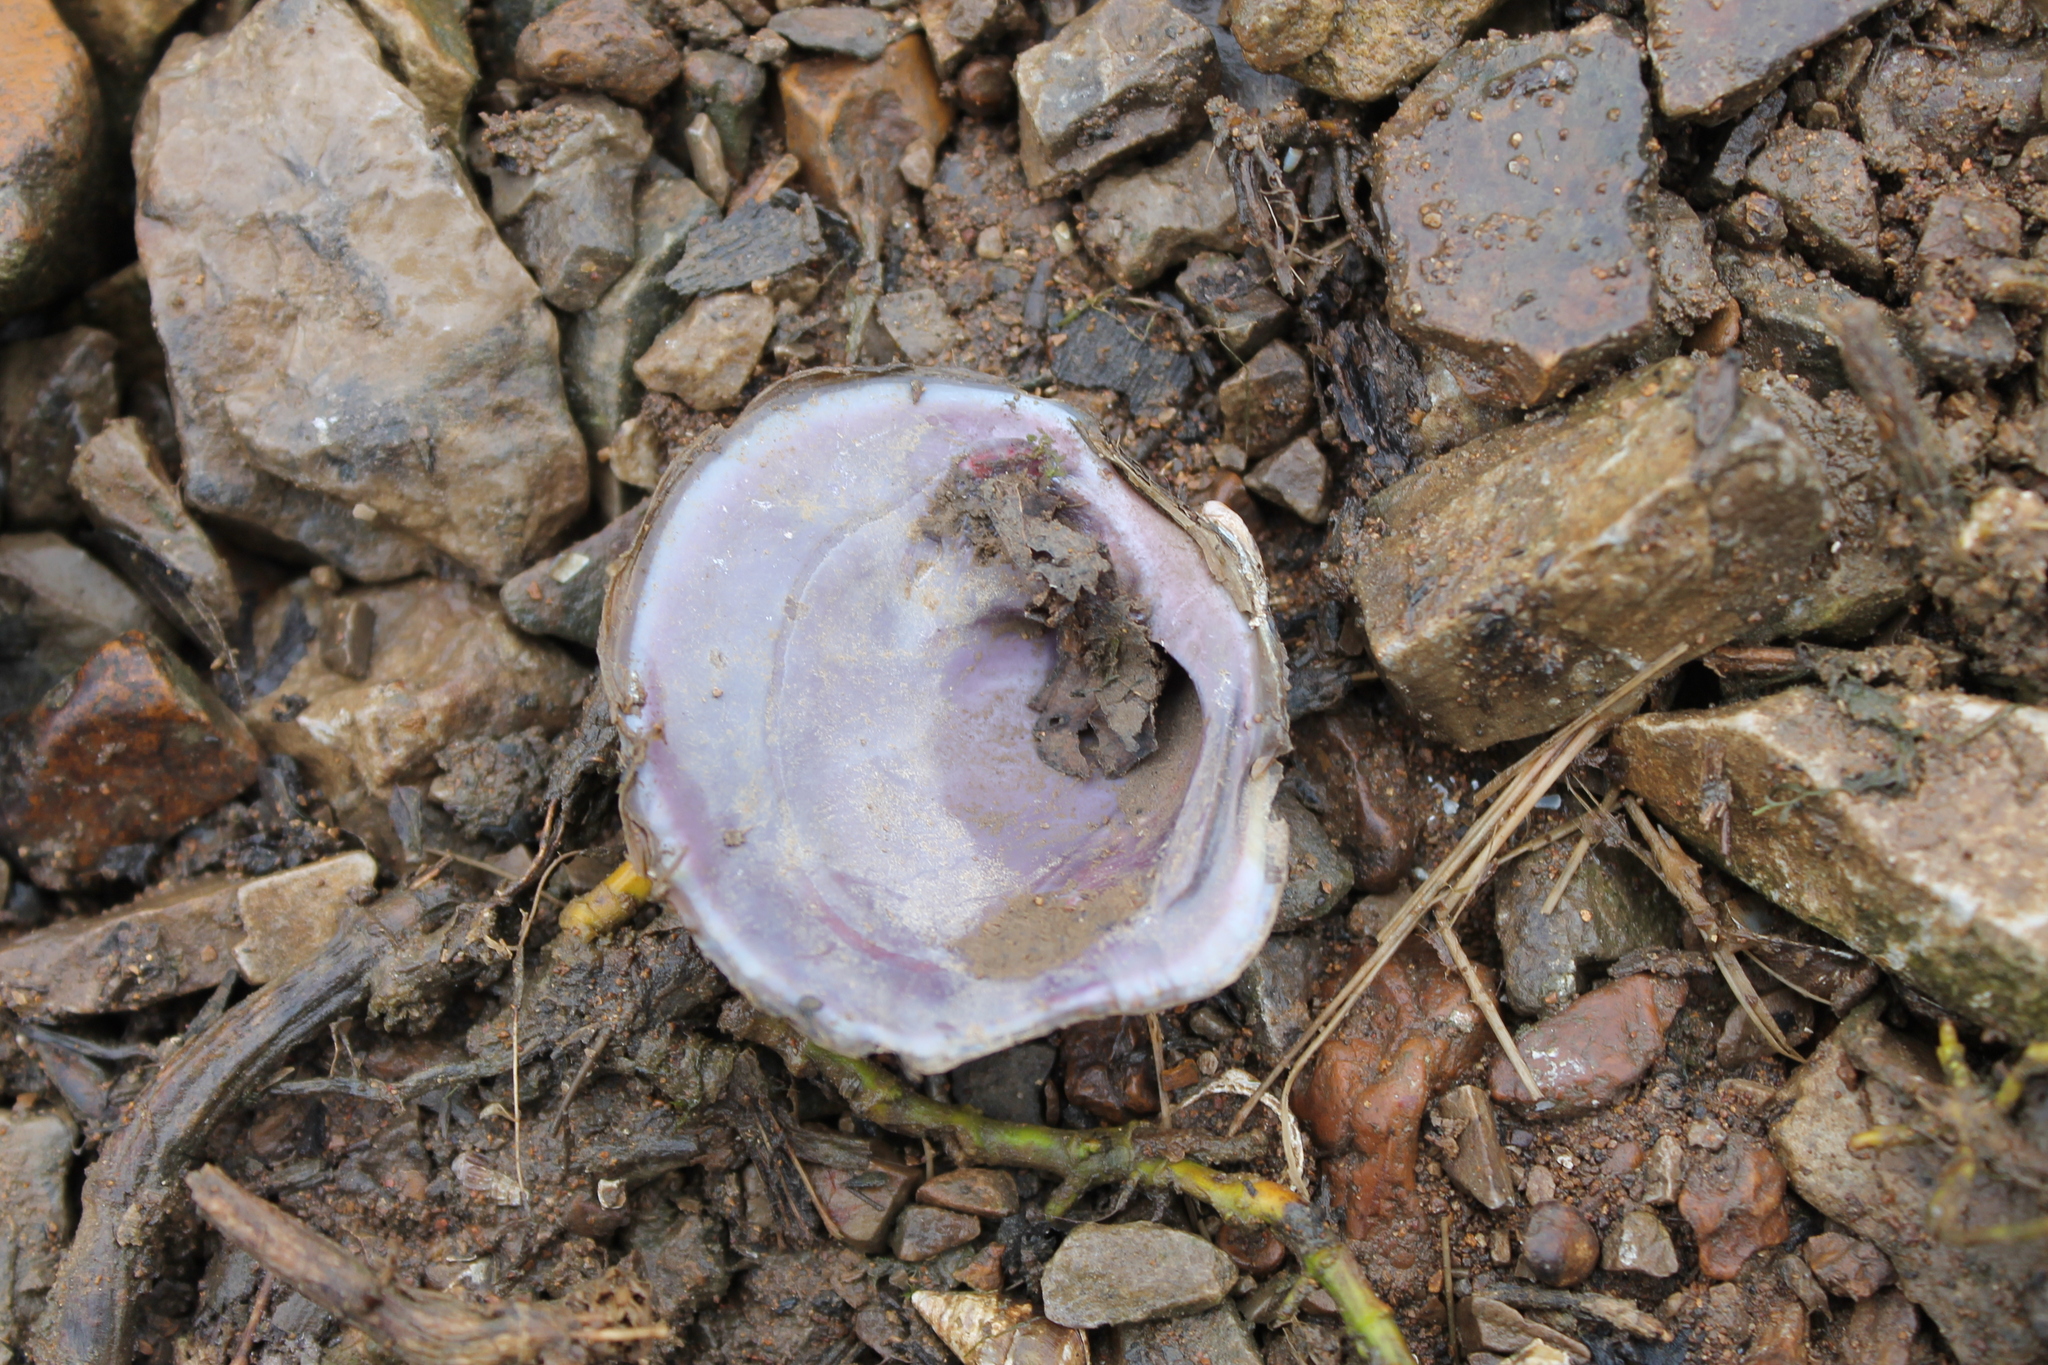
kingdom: Animalia
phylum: Mollusca
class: Bivalvia
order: Unionida
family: Unionidae
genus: Cyclonaias
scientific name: Cyclonaias tuberculata
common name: Purple wartyback
